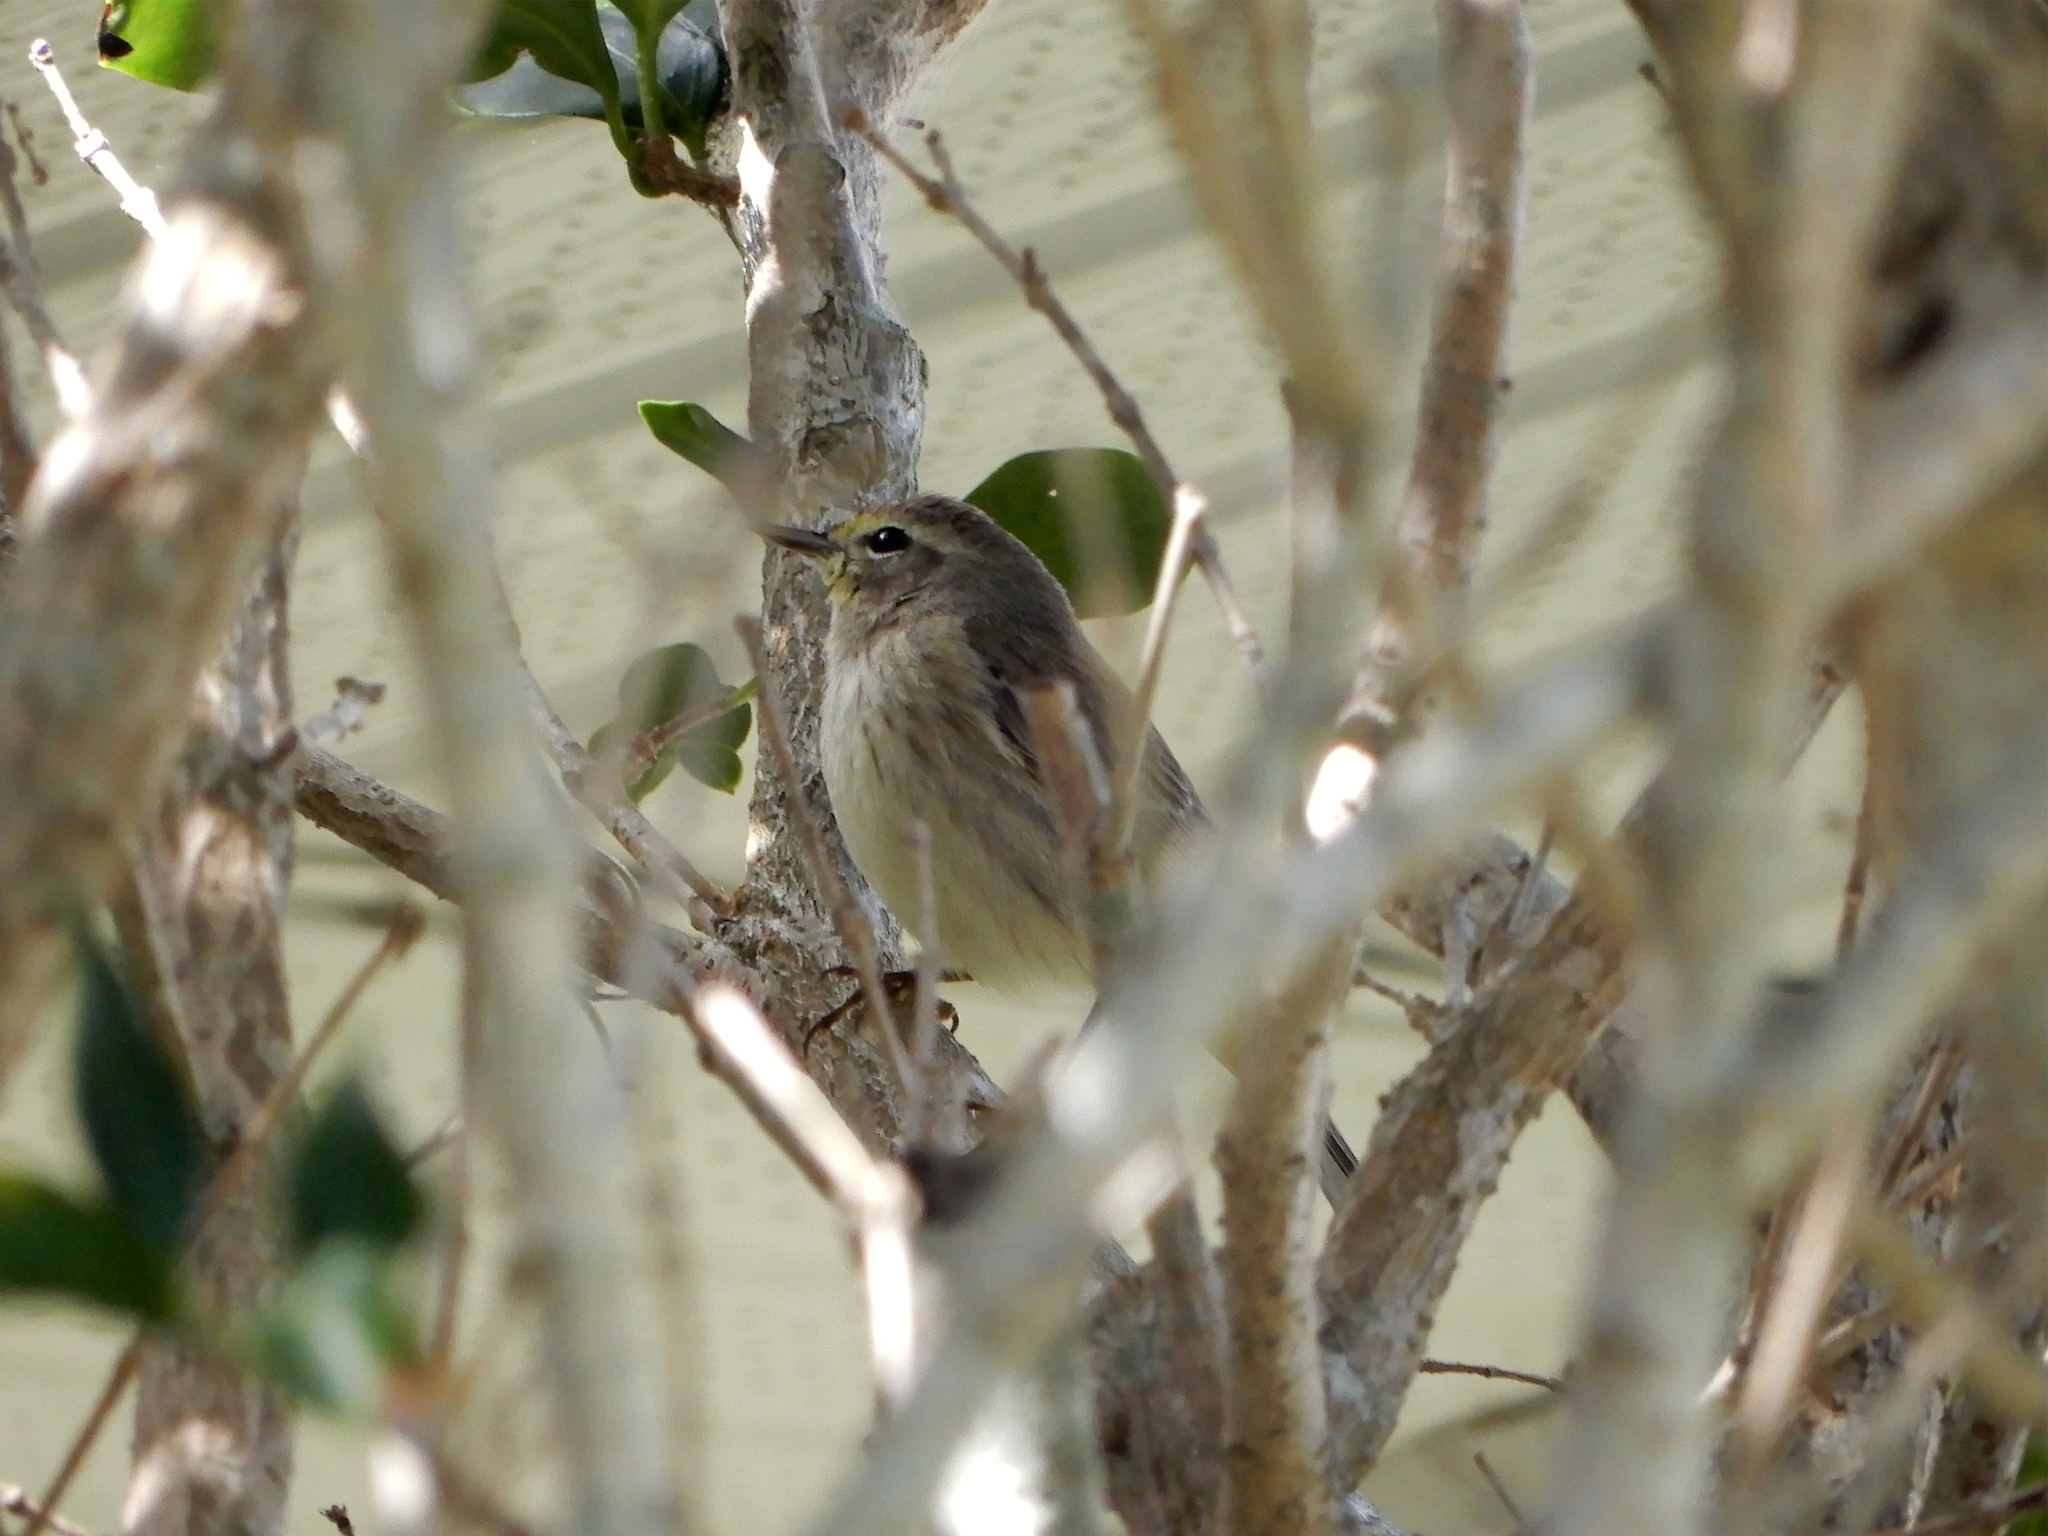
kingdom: Animalia
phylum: Chordata
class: Aves
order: Passeriformes
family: Parulidae
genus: Setophaga
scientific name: Setophaga palmarum
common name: Palm warbler
